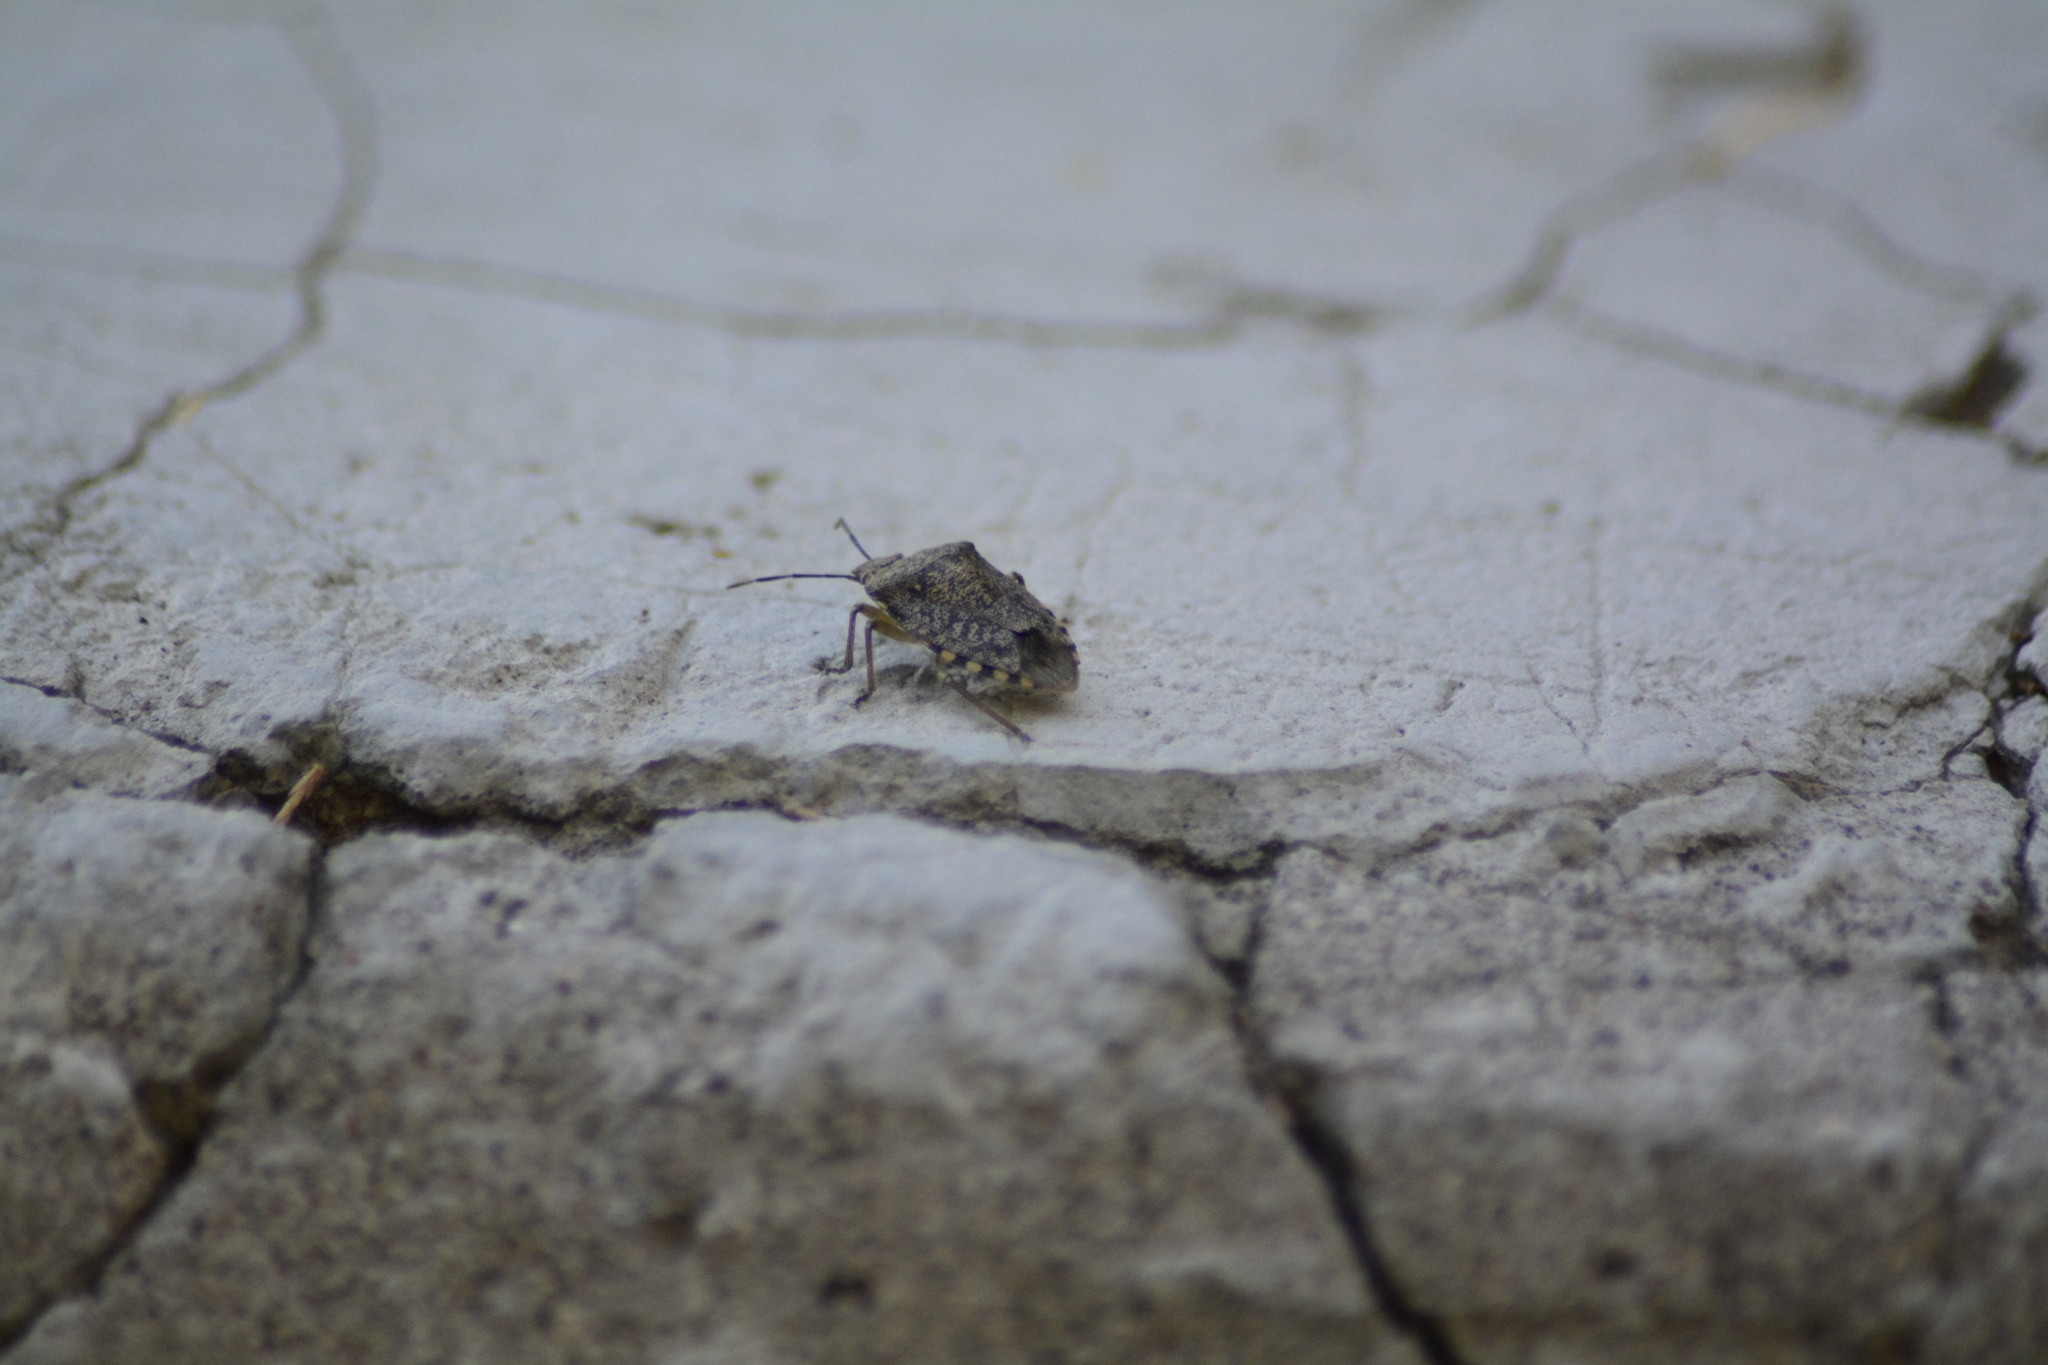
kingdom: Animalia
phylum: Arthropoda
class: Insecta
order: Hemiptera
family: Pentatomidae
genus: Chinavia
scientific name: Chinavia musiva
